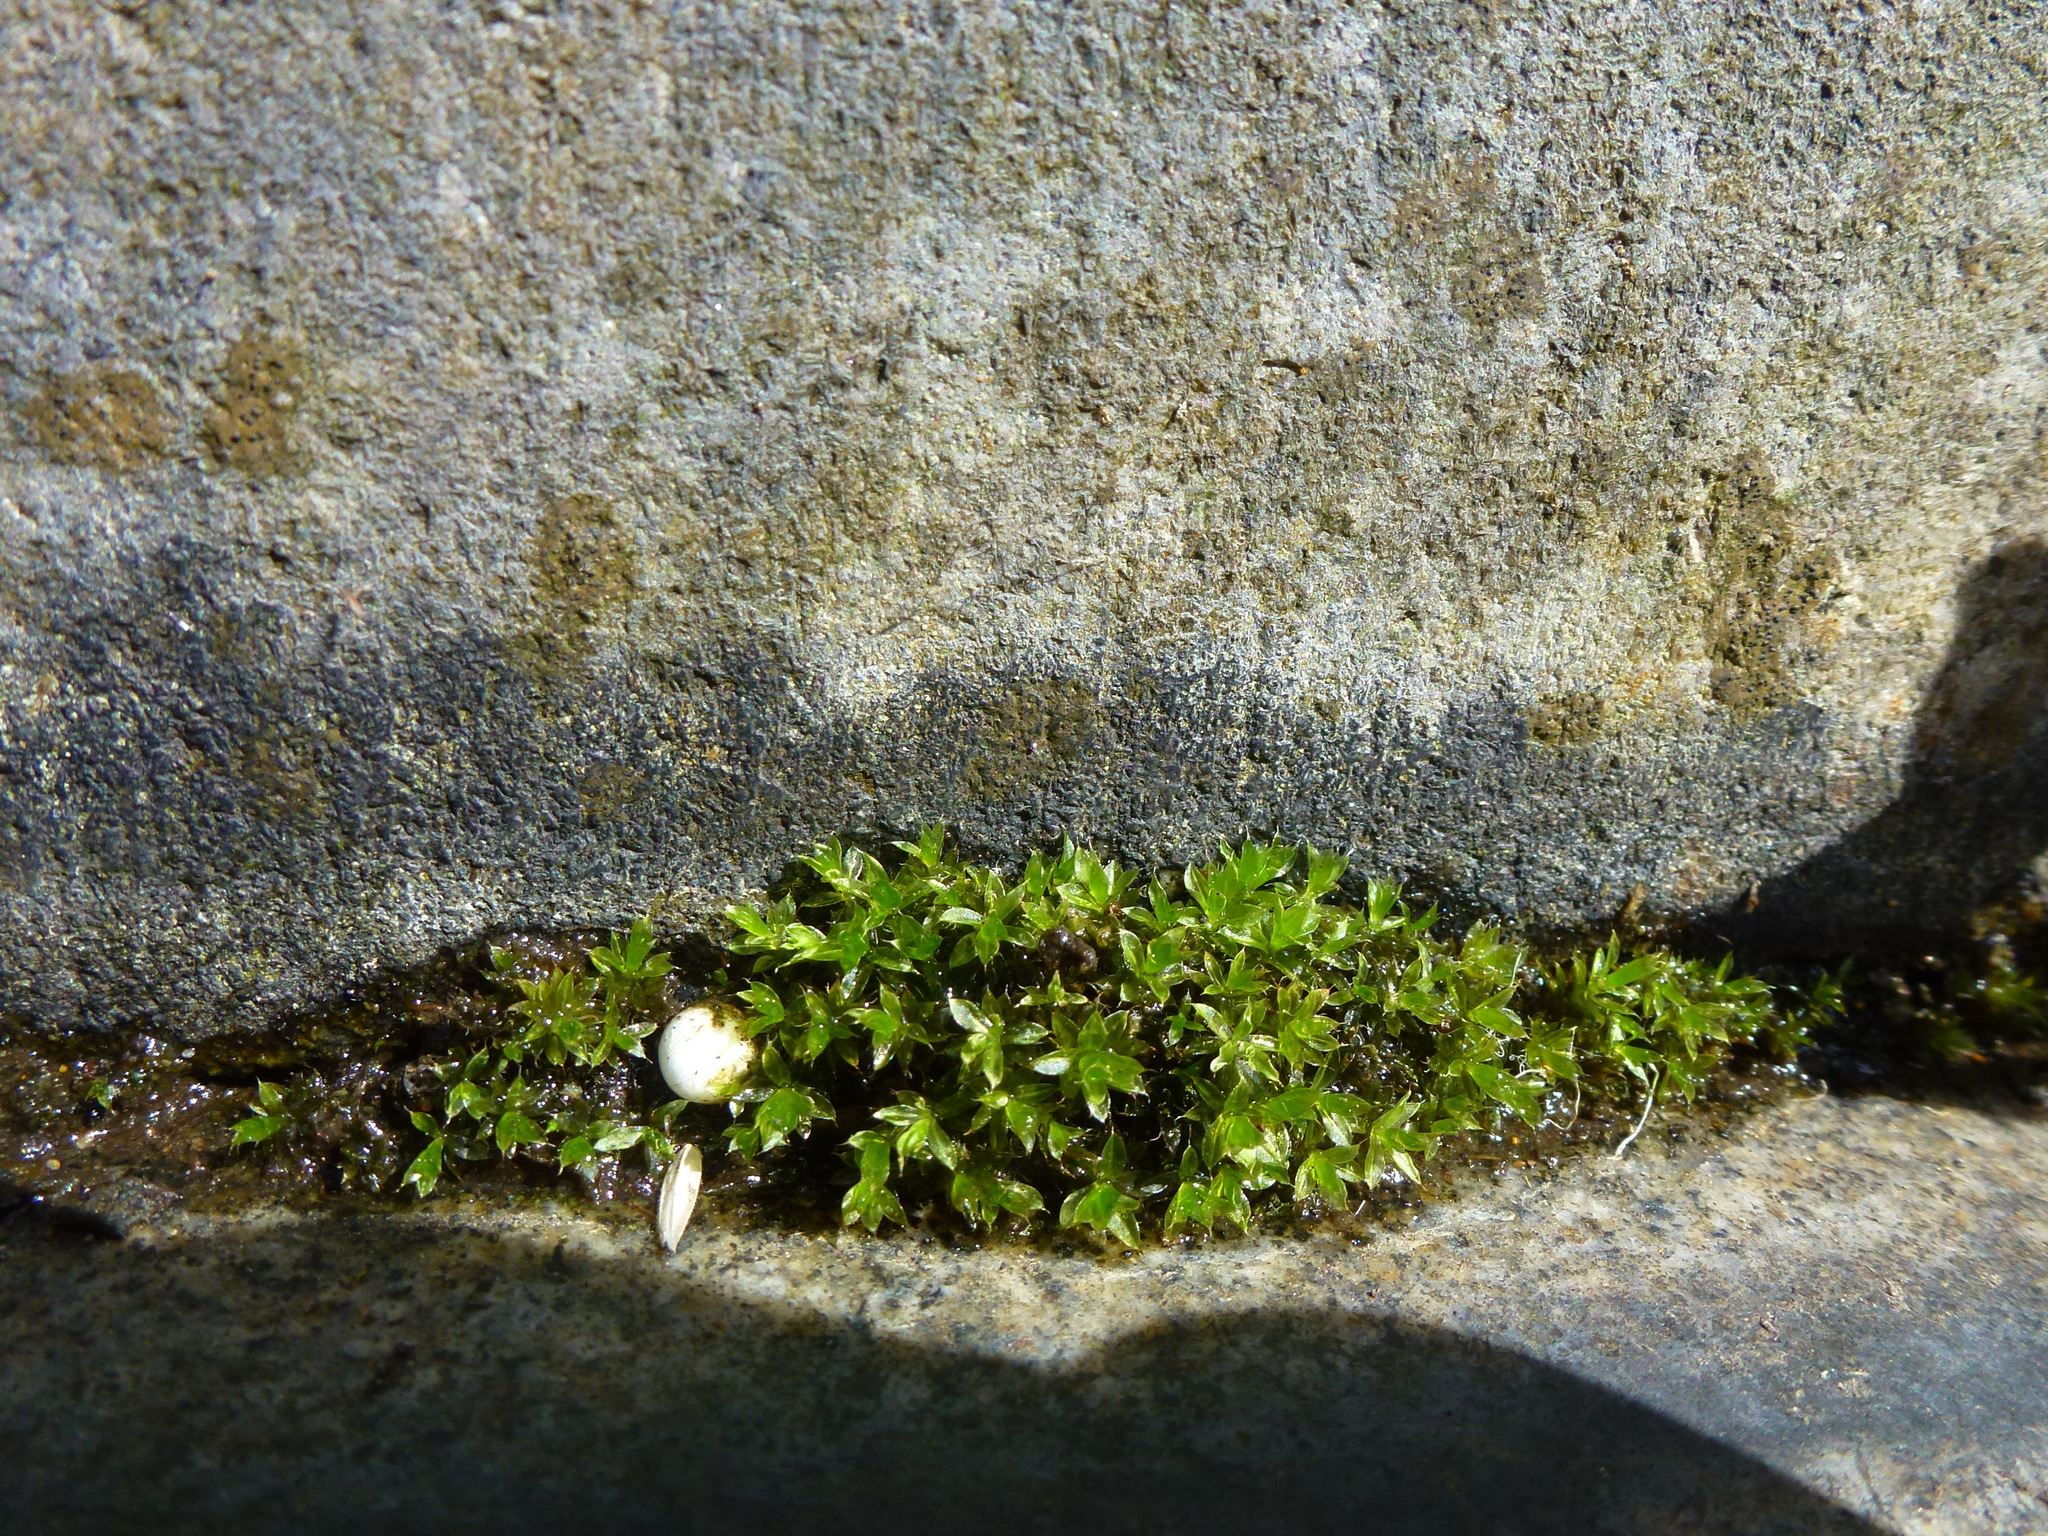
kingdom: Plantae
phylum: Bryophyta
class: Bryopsida
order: Bryales
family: Bryaceae
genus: Rosulabryum
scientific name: Rosulabryum capillare
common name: Capillary thread-moss
